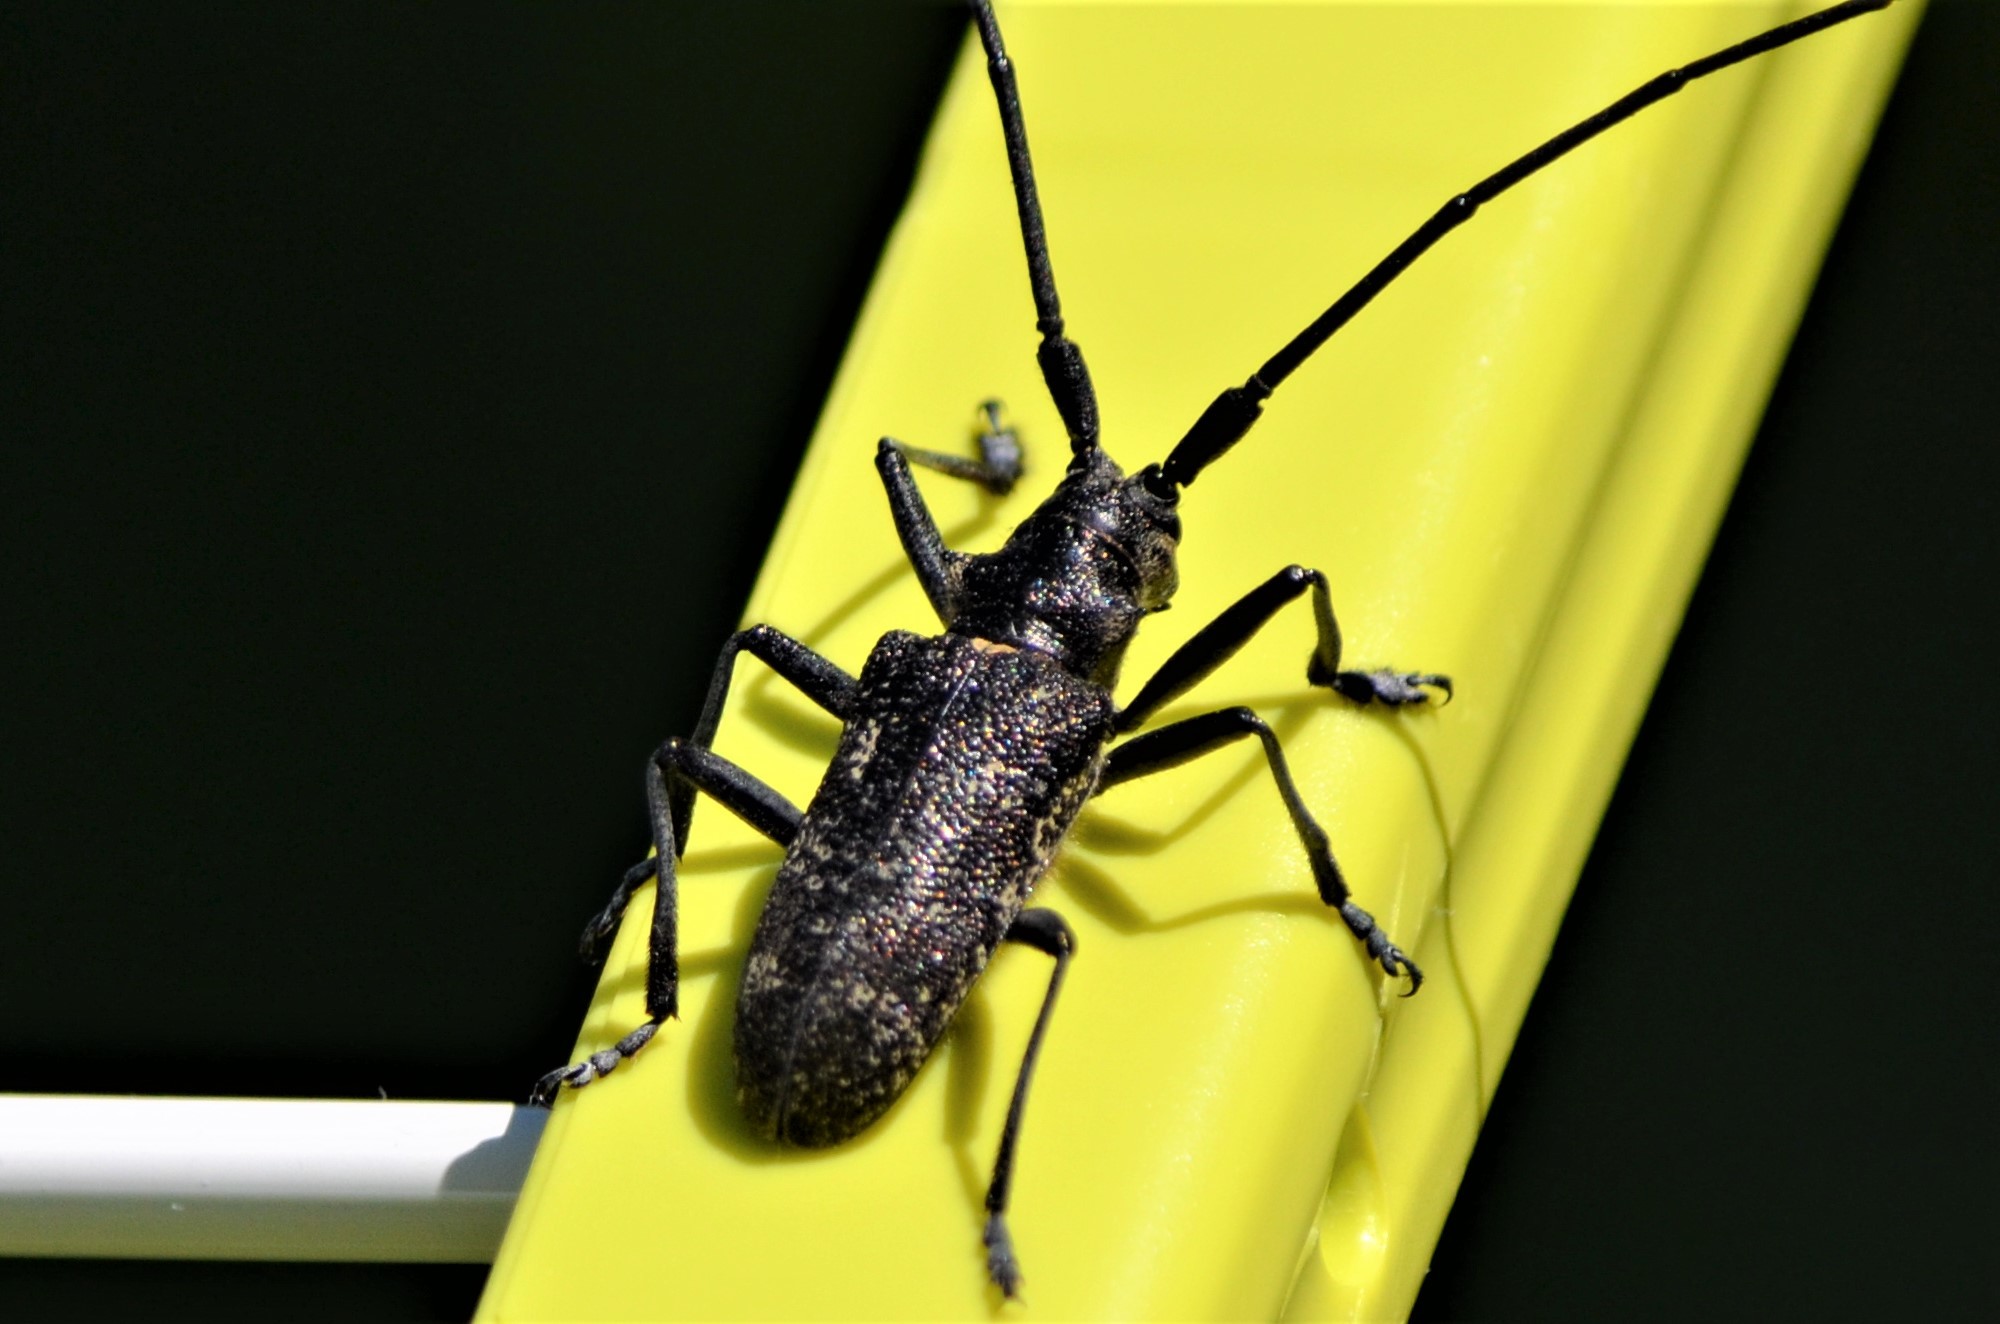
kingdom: Animalia
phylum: Arthropoda
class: Insecta
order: Coleoptera
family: Cerambycidae
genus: Monochamus
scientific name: Monochamus sutor
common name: Pine sawyer
